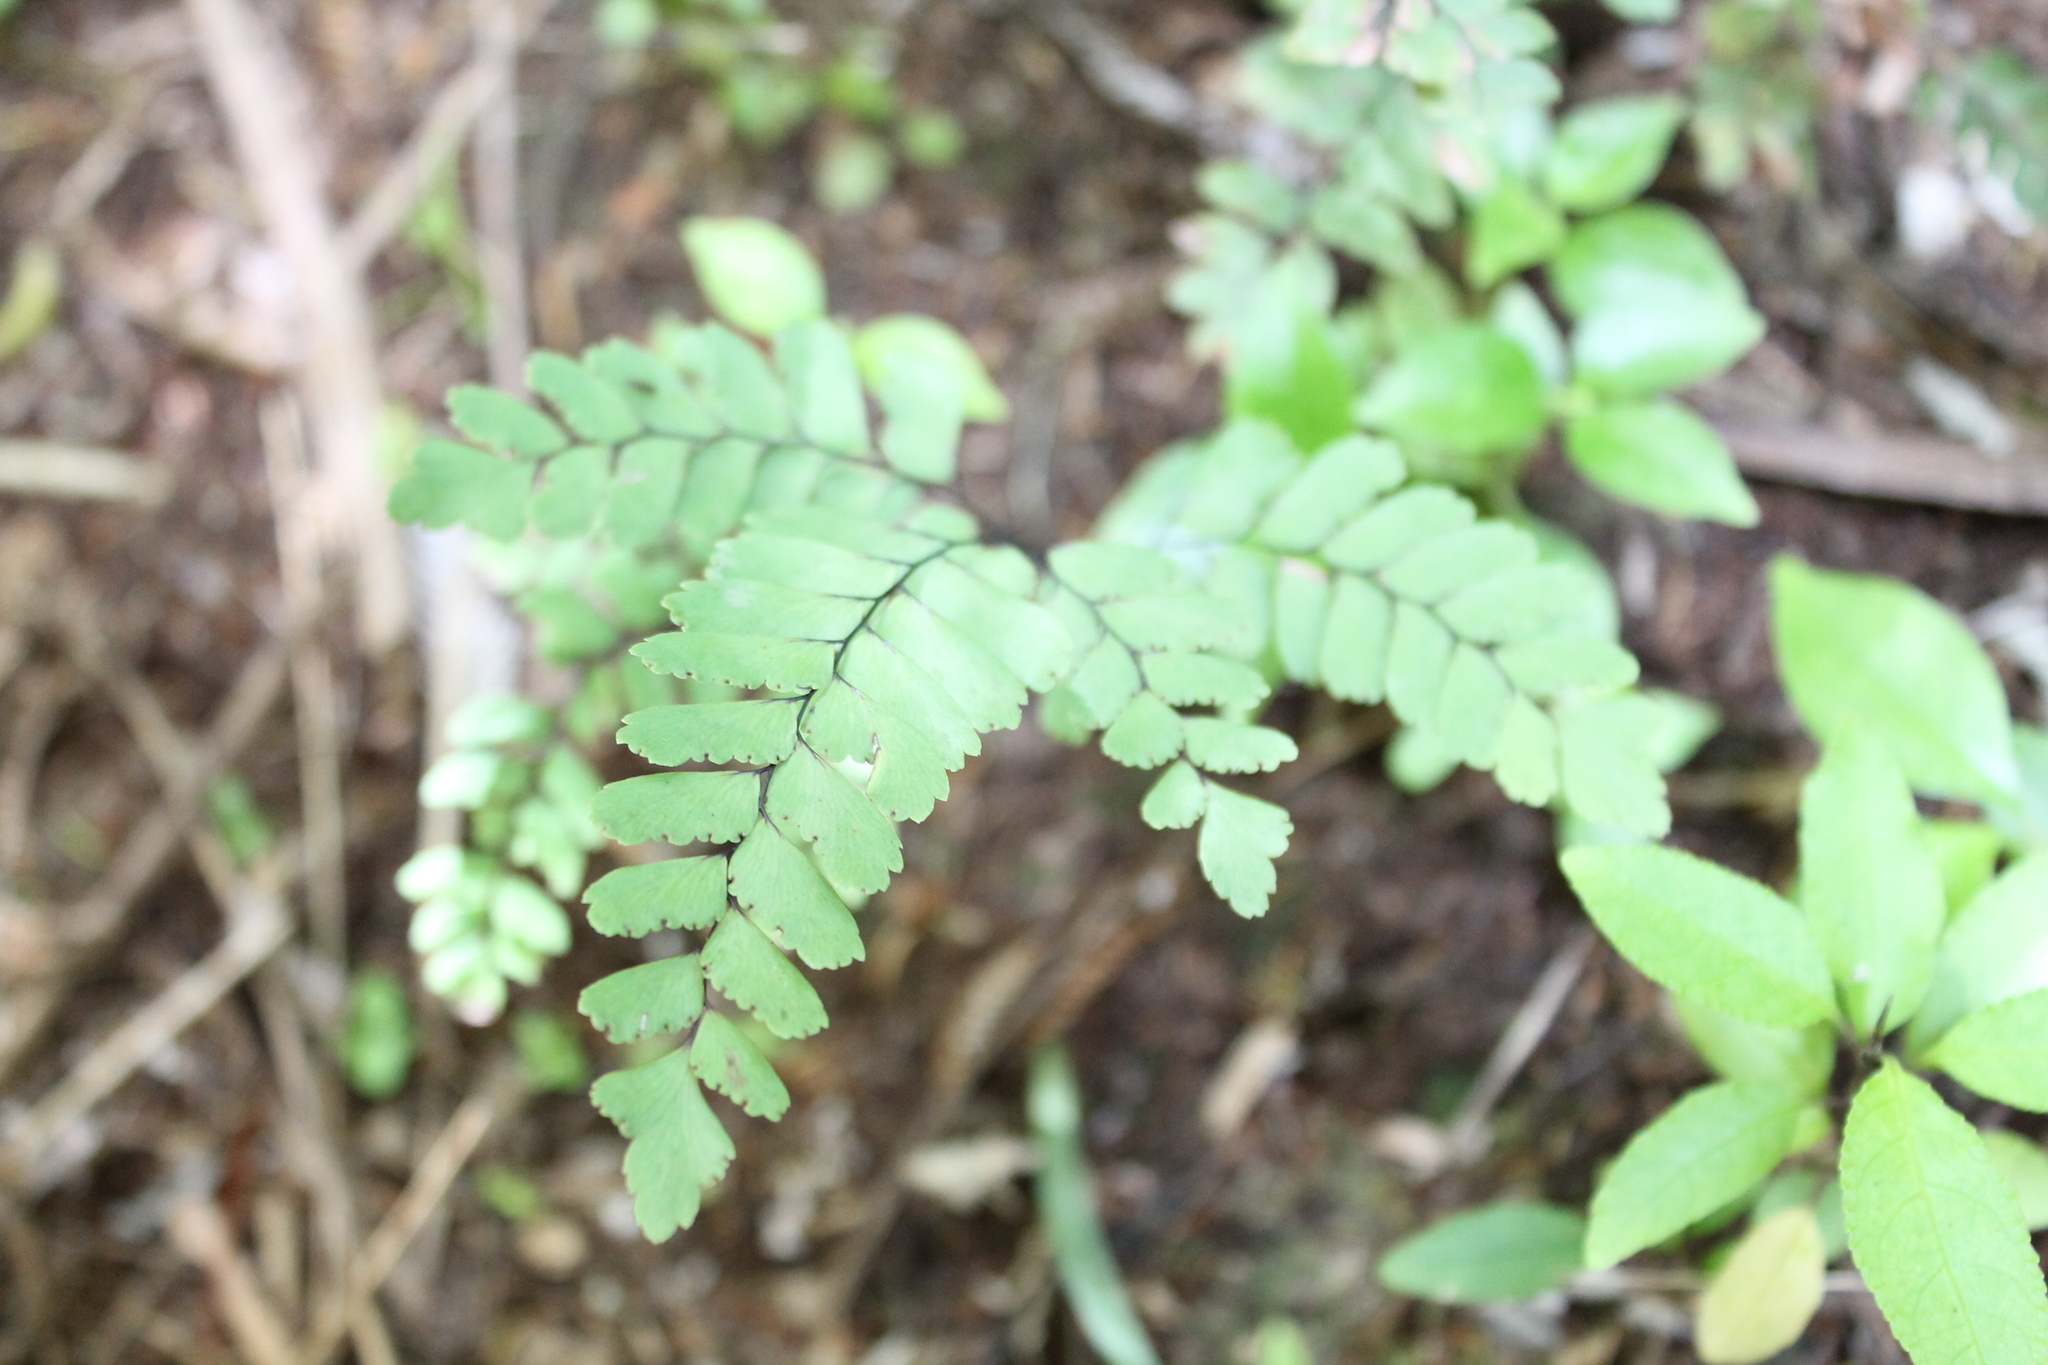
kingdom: Plantae
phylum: Tracheophyta
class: Polypodiopsida
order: Polypodiales
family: Pteridaceae
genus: Adiantum
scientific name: Adiantum cunninghamii
